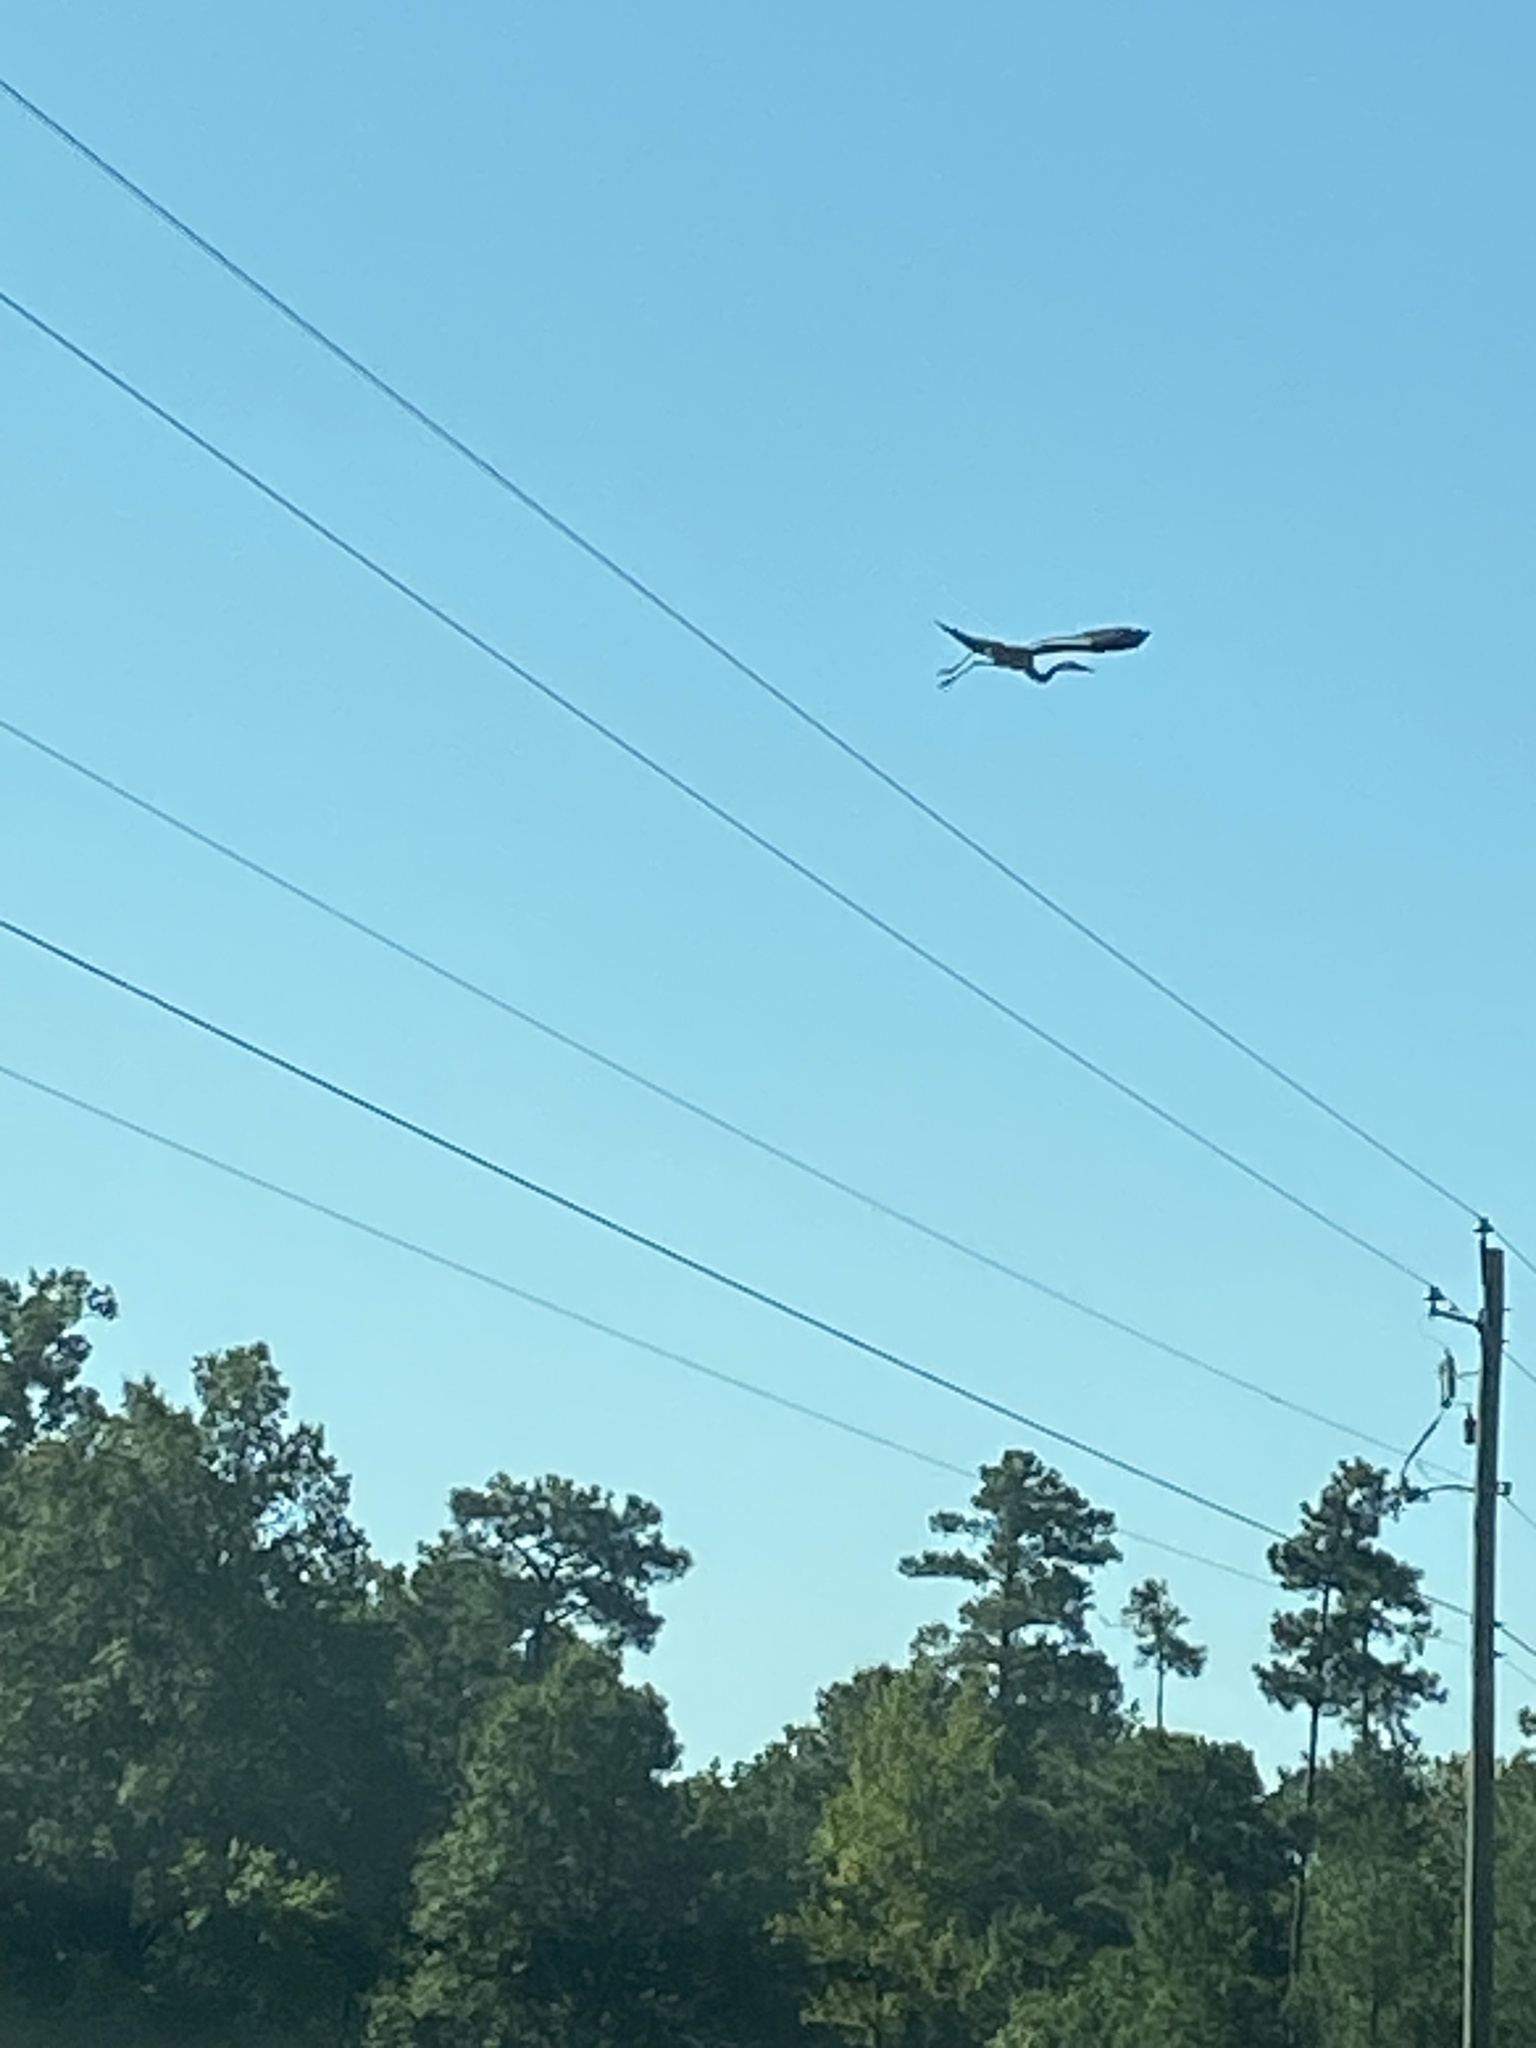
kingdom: Animalia
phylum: Chordata
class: Aves
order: Pelecaniformes
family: Ardeidae
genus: Ardea
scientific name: Ardea herodias
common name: Great blue heron
